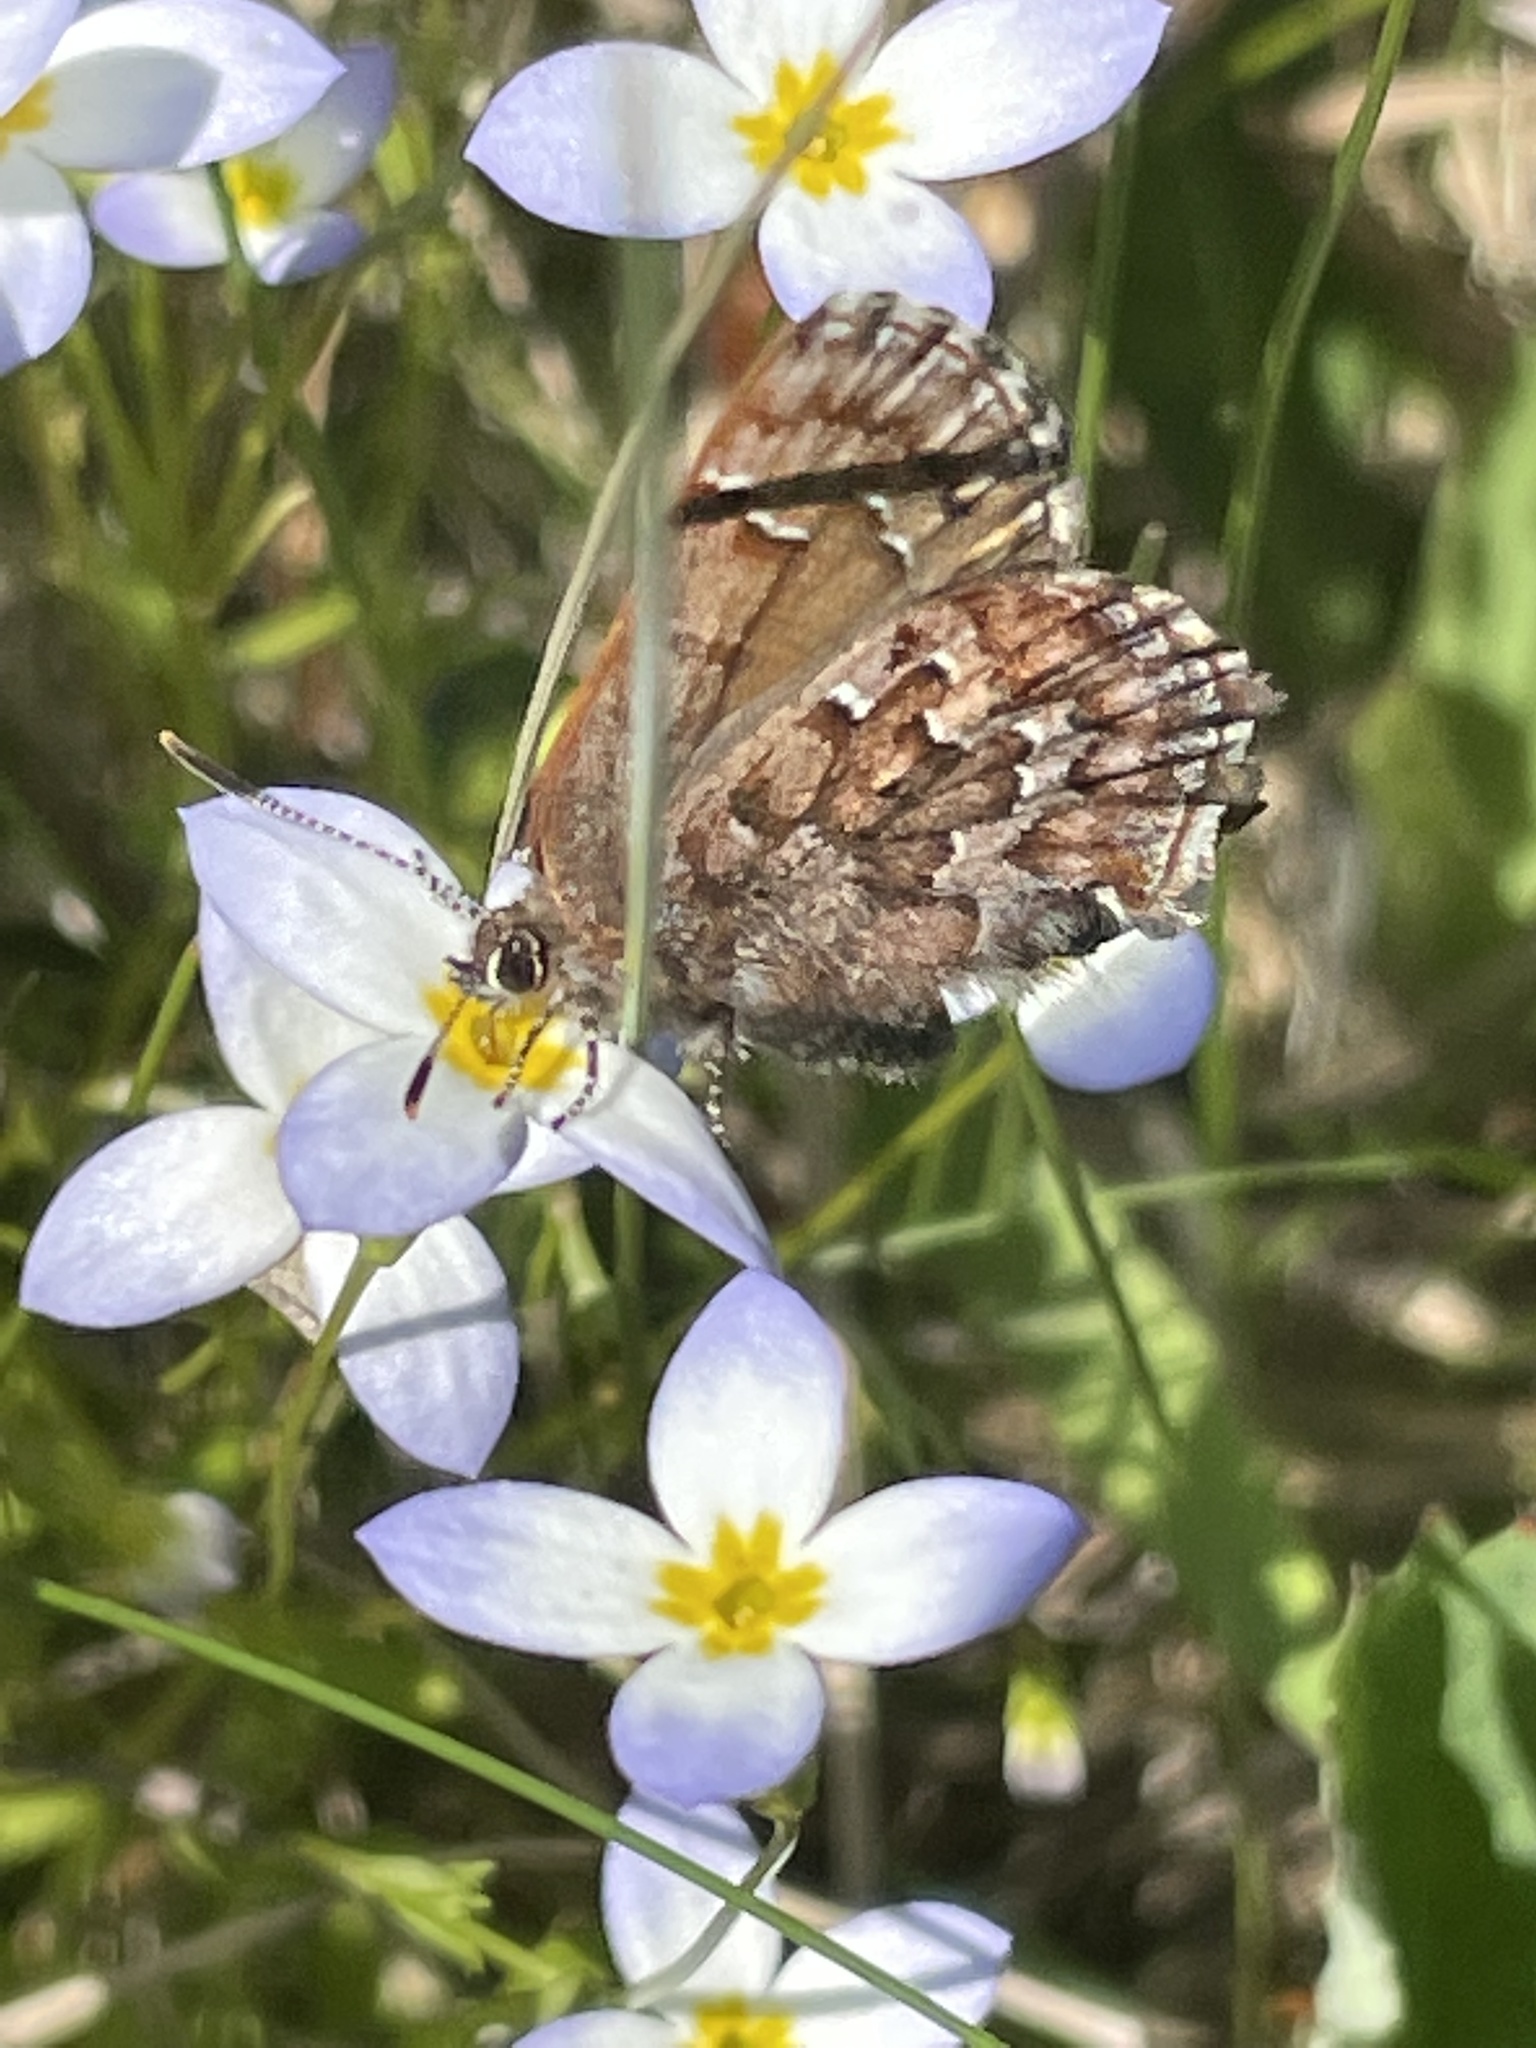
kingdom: Animalia
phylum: Arthropoda
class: Insecta
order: Lepidoptera
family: Lycaenidae
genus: Incisalia
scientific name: Incisalia niphon
